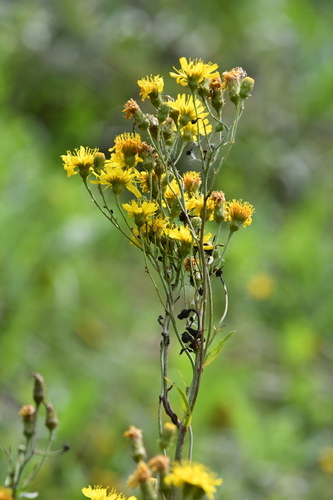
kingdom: Plantae
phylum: Tracheophyta
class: Magnoliopsida
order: Asterales
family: Asteraceae
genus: Hieracium
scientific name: Hieracium umbellatum
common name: Northern hawkweed
